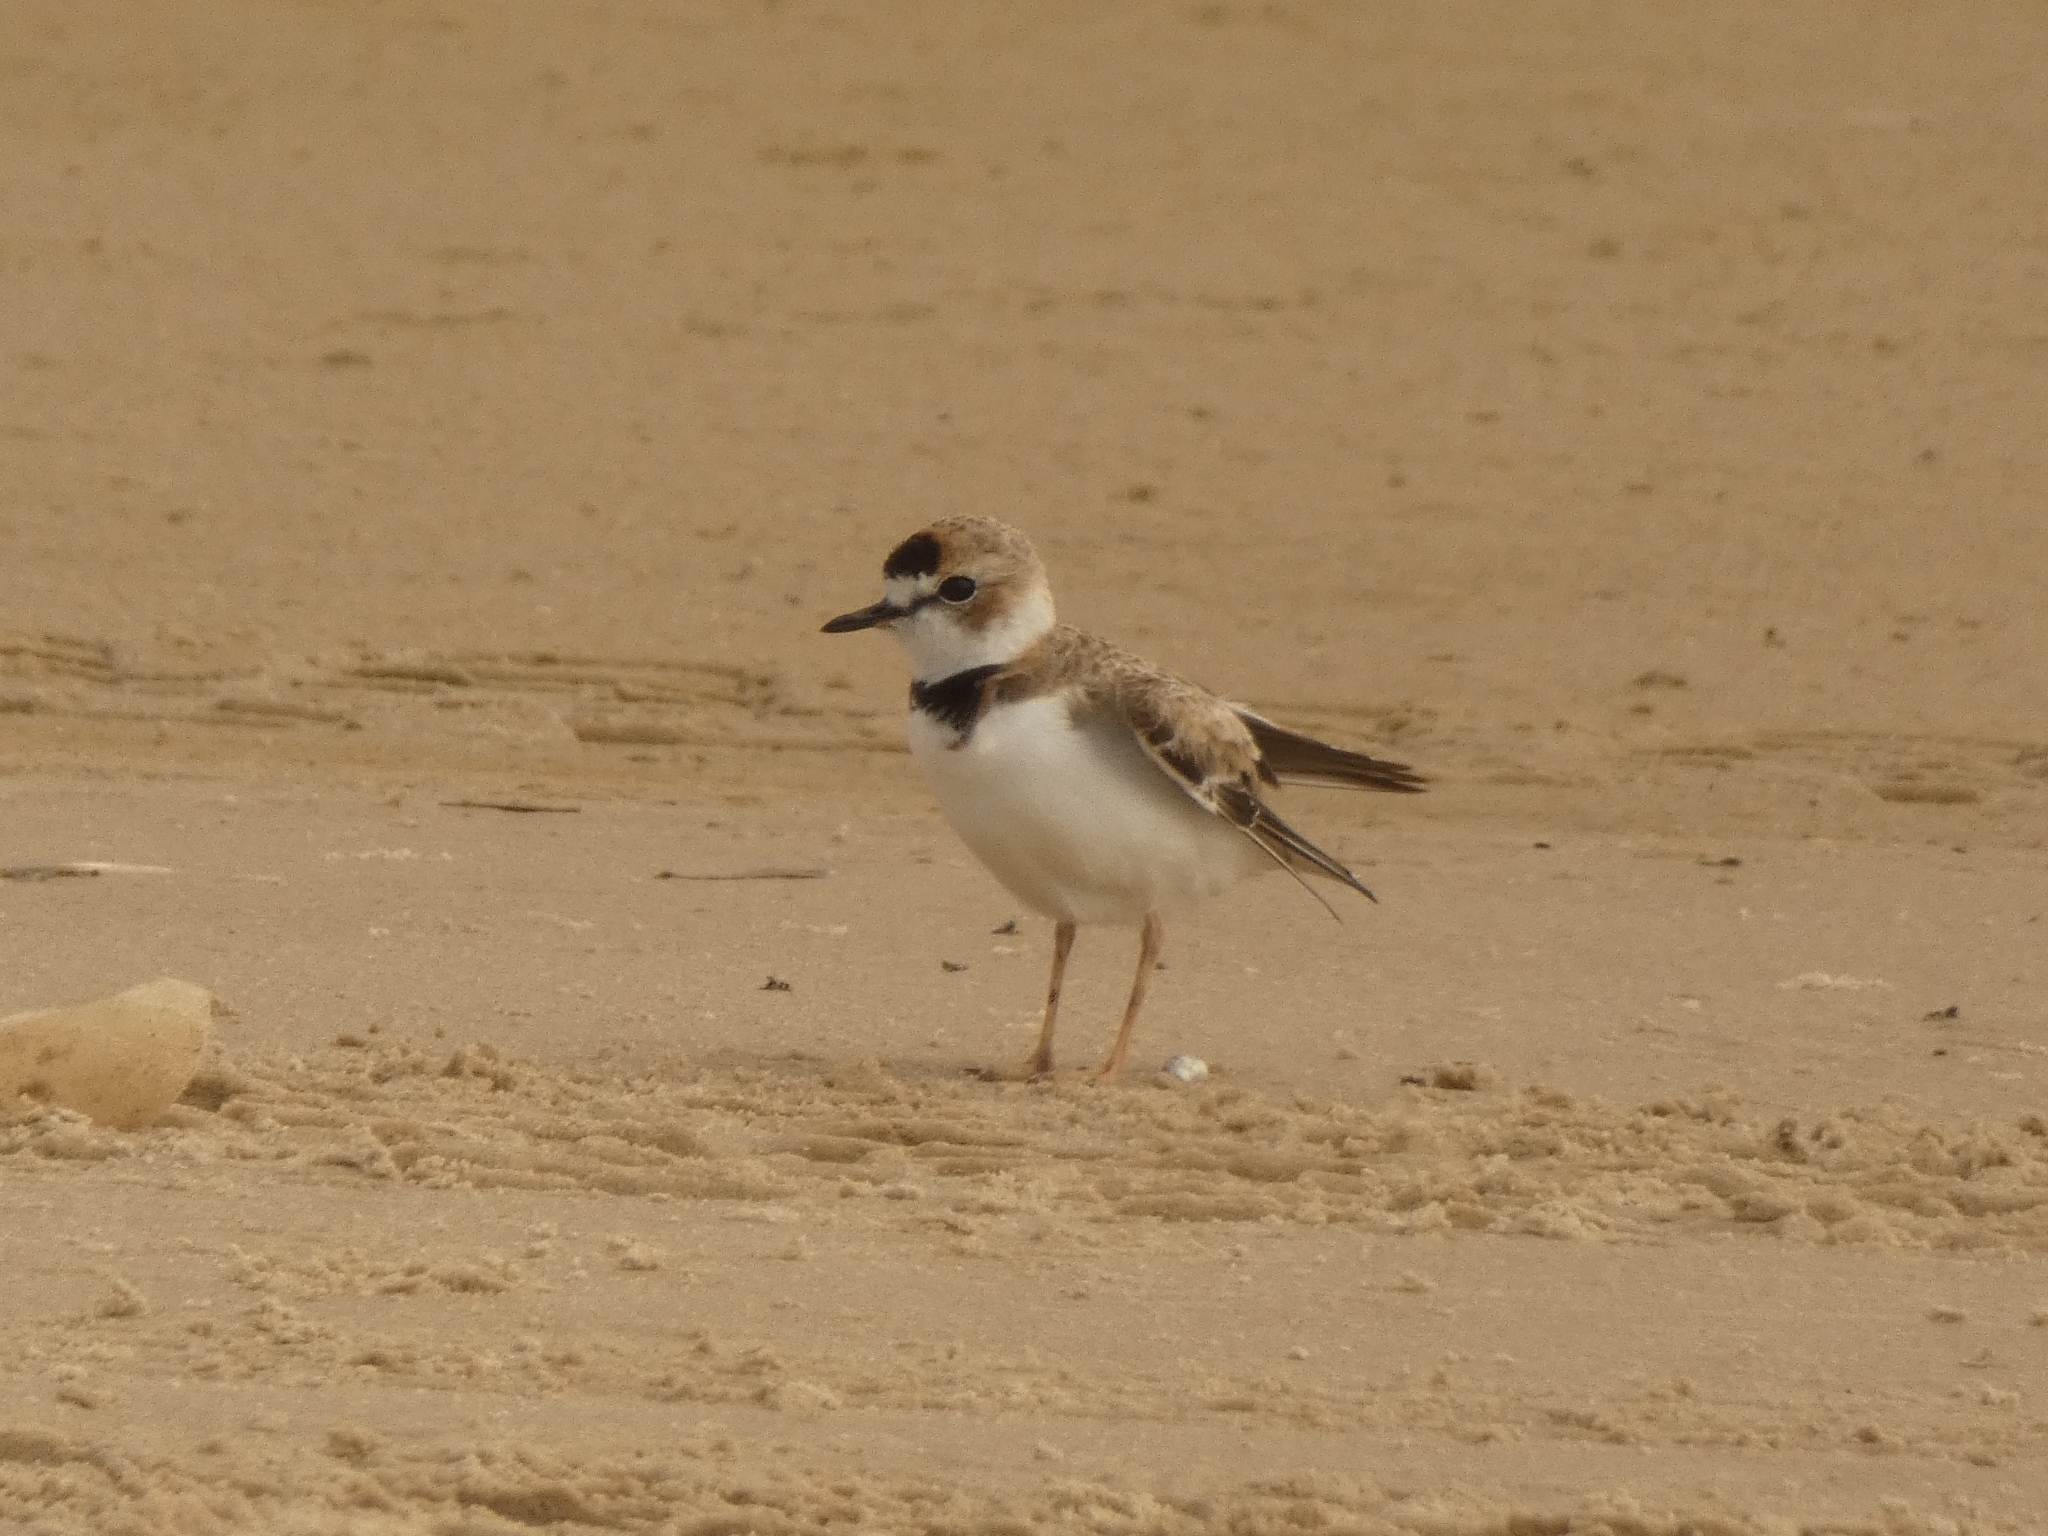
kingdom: Animalia
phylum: Chordata
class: Aves
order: Charadriiformes
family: Charadriidae
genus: Anarhynchus
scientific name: Anarhynchus
